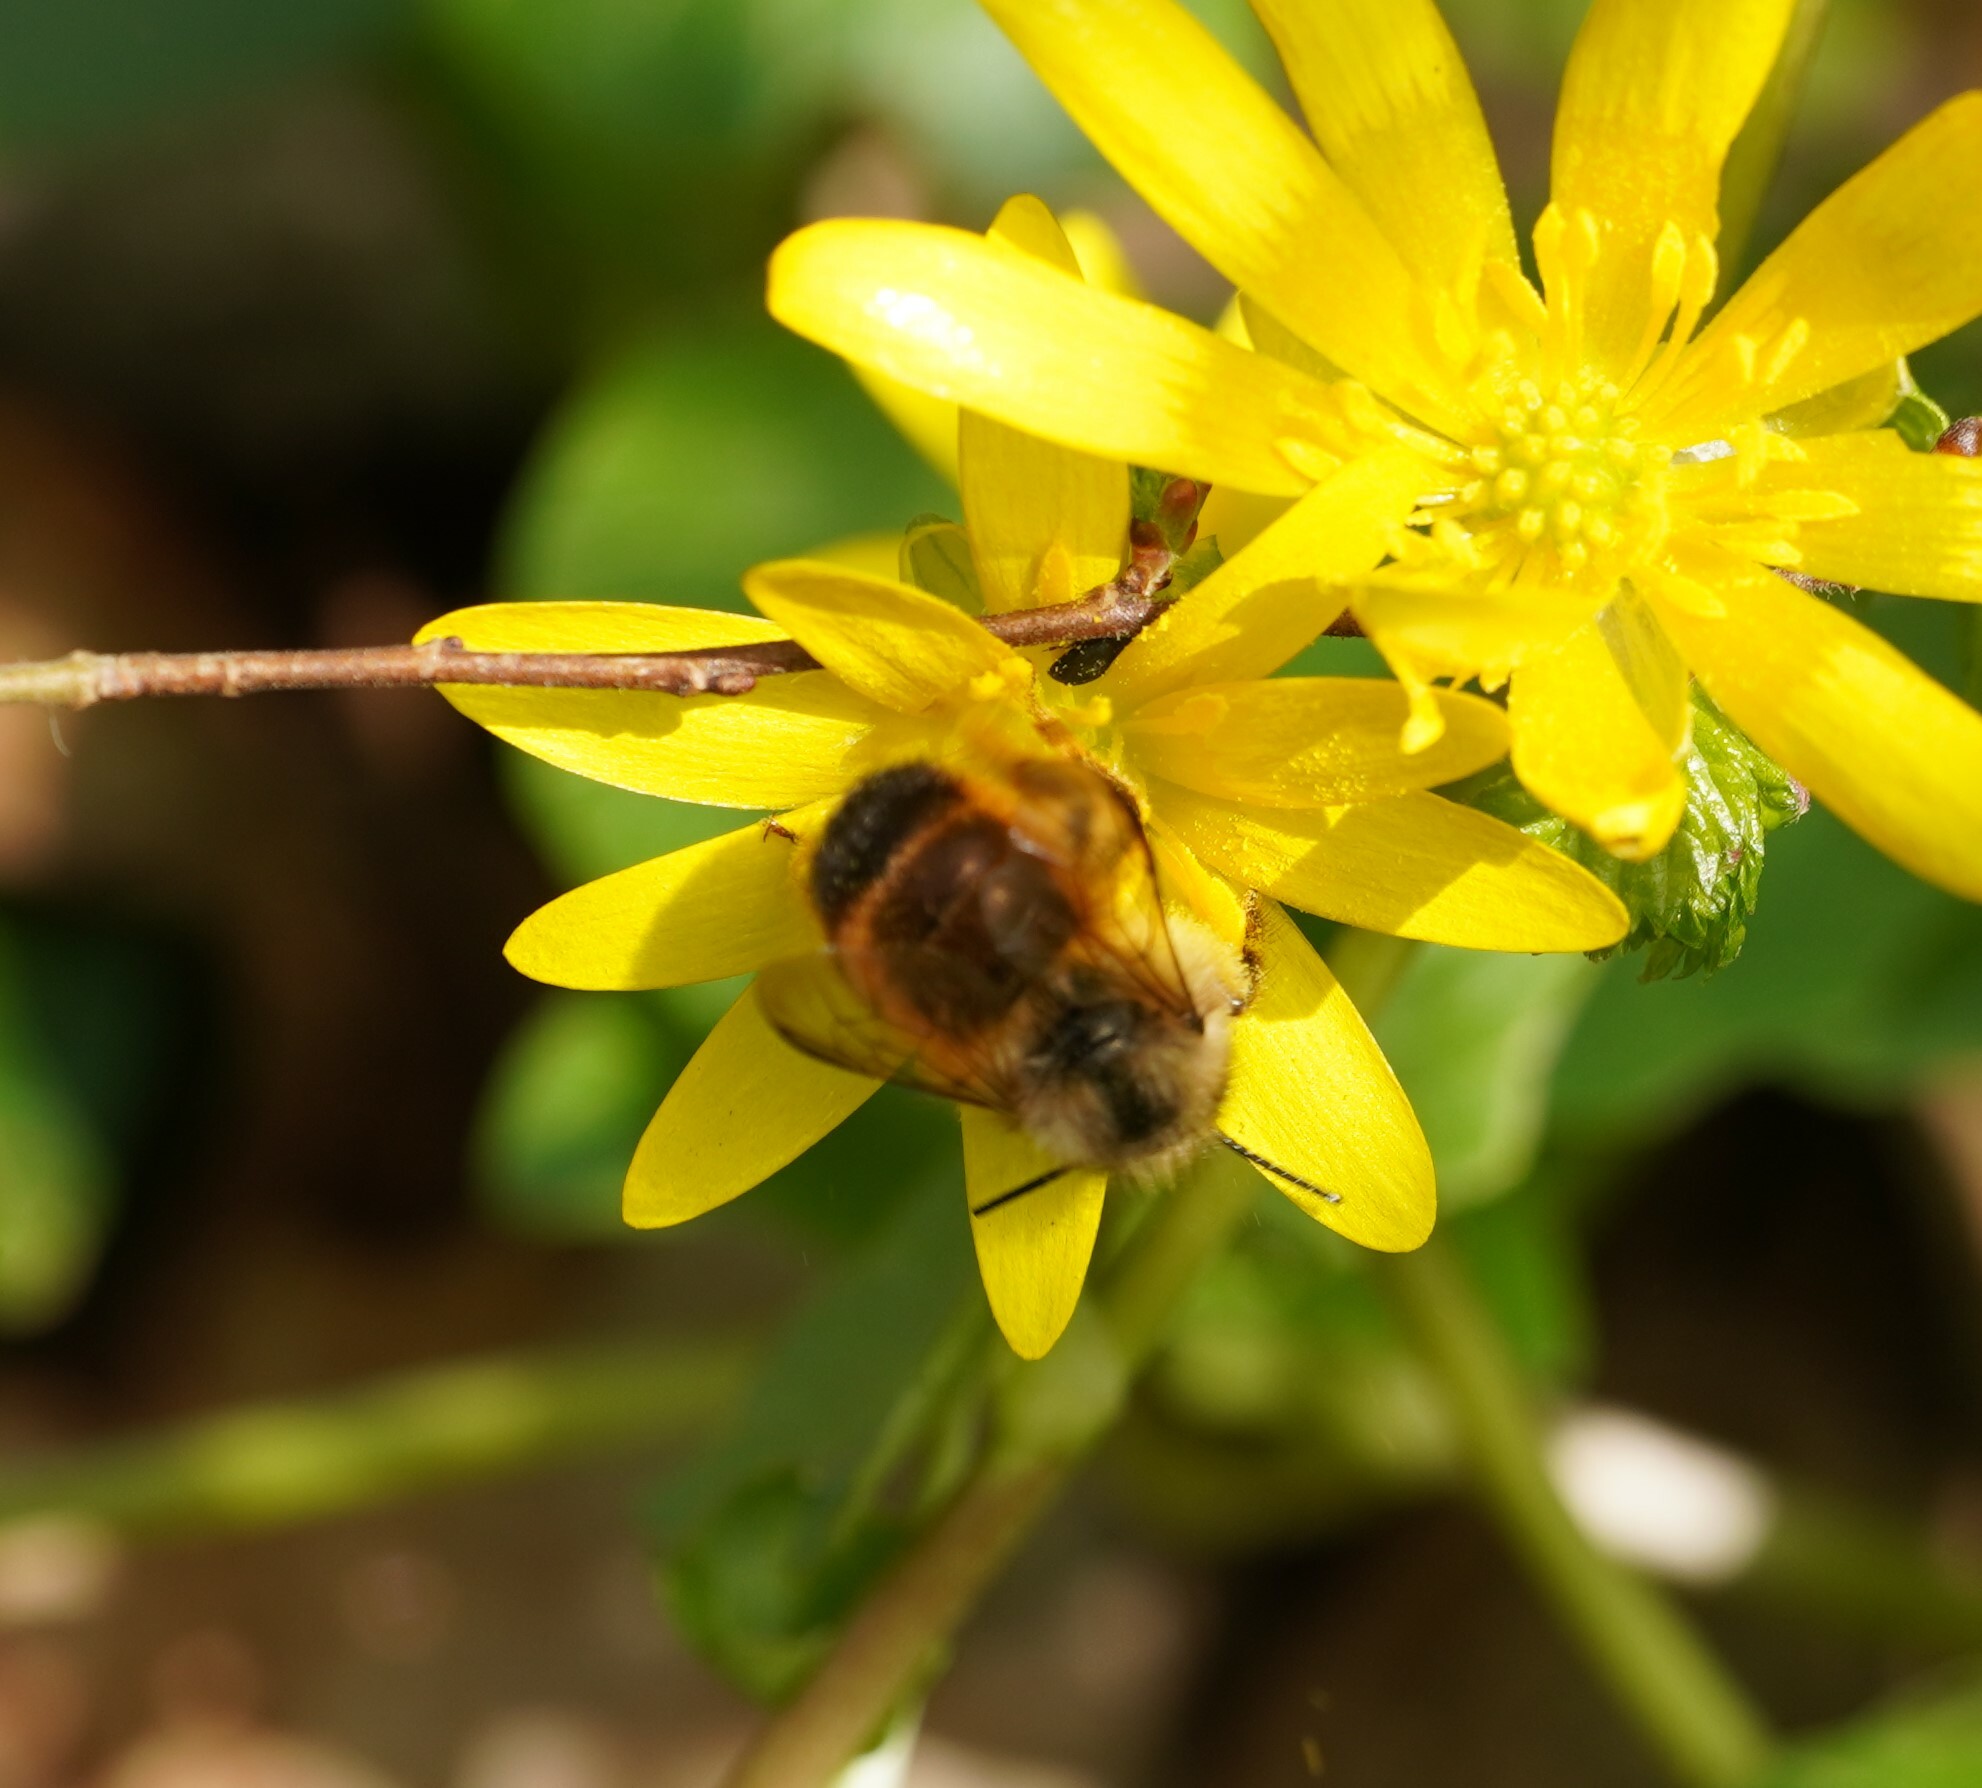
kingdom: Animalia
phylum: Arthropoda
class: Insecta
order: Hymenoptera
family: Megachilidae
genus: Osmia
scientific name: Osmia bicornis
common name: Red mason bee
